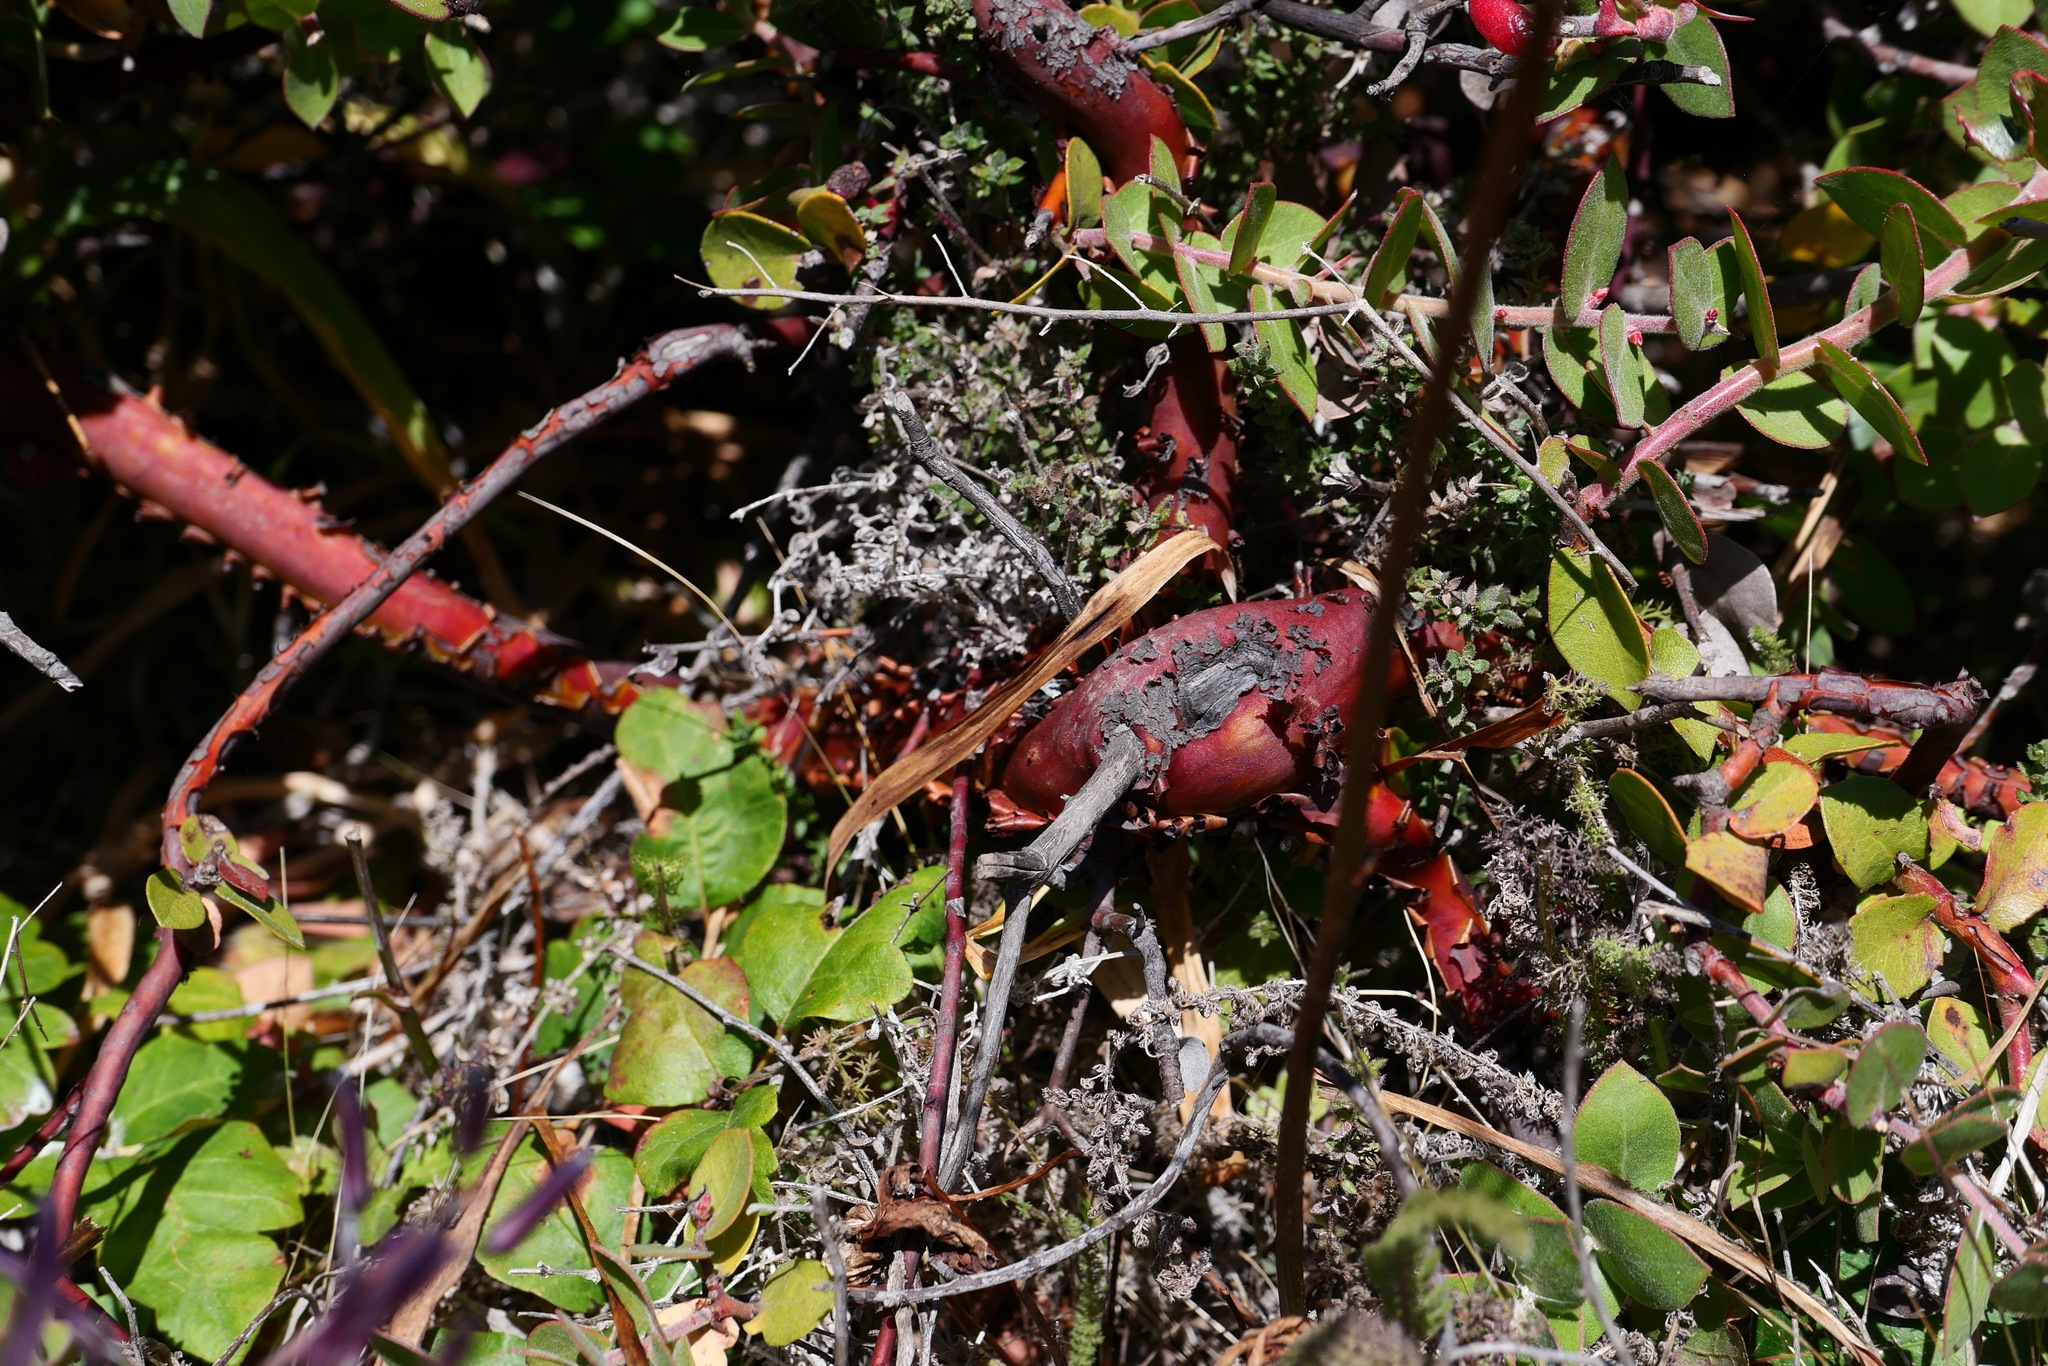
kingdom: Plantae
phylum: Tracheophyta
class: Magnoliopsida
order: Ericales
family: Ericaceae
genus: Arctostaphylos
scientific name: Arctostaphylos cruzensis
